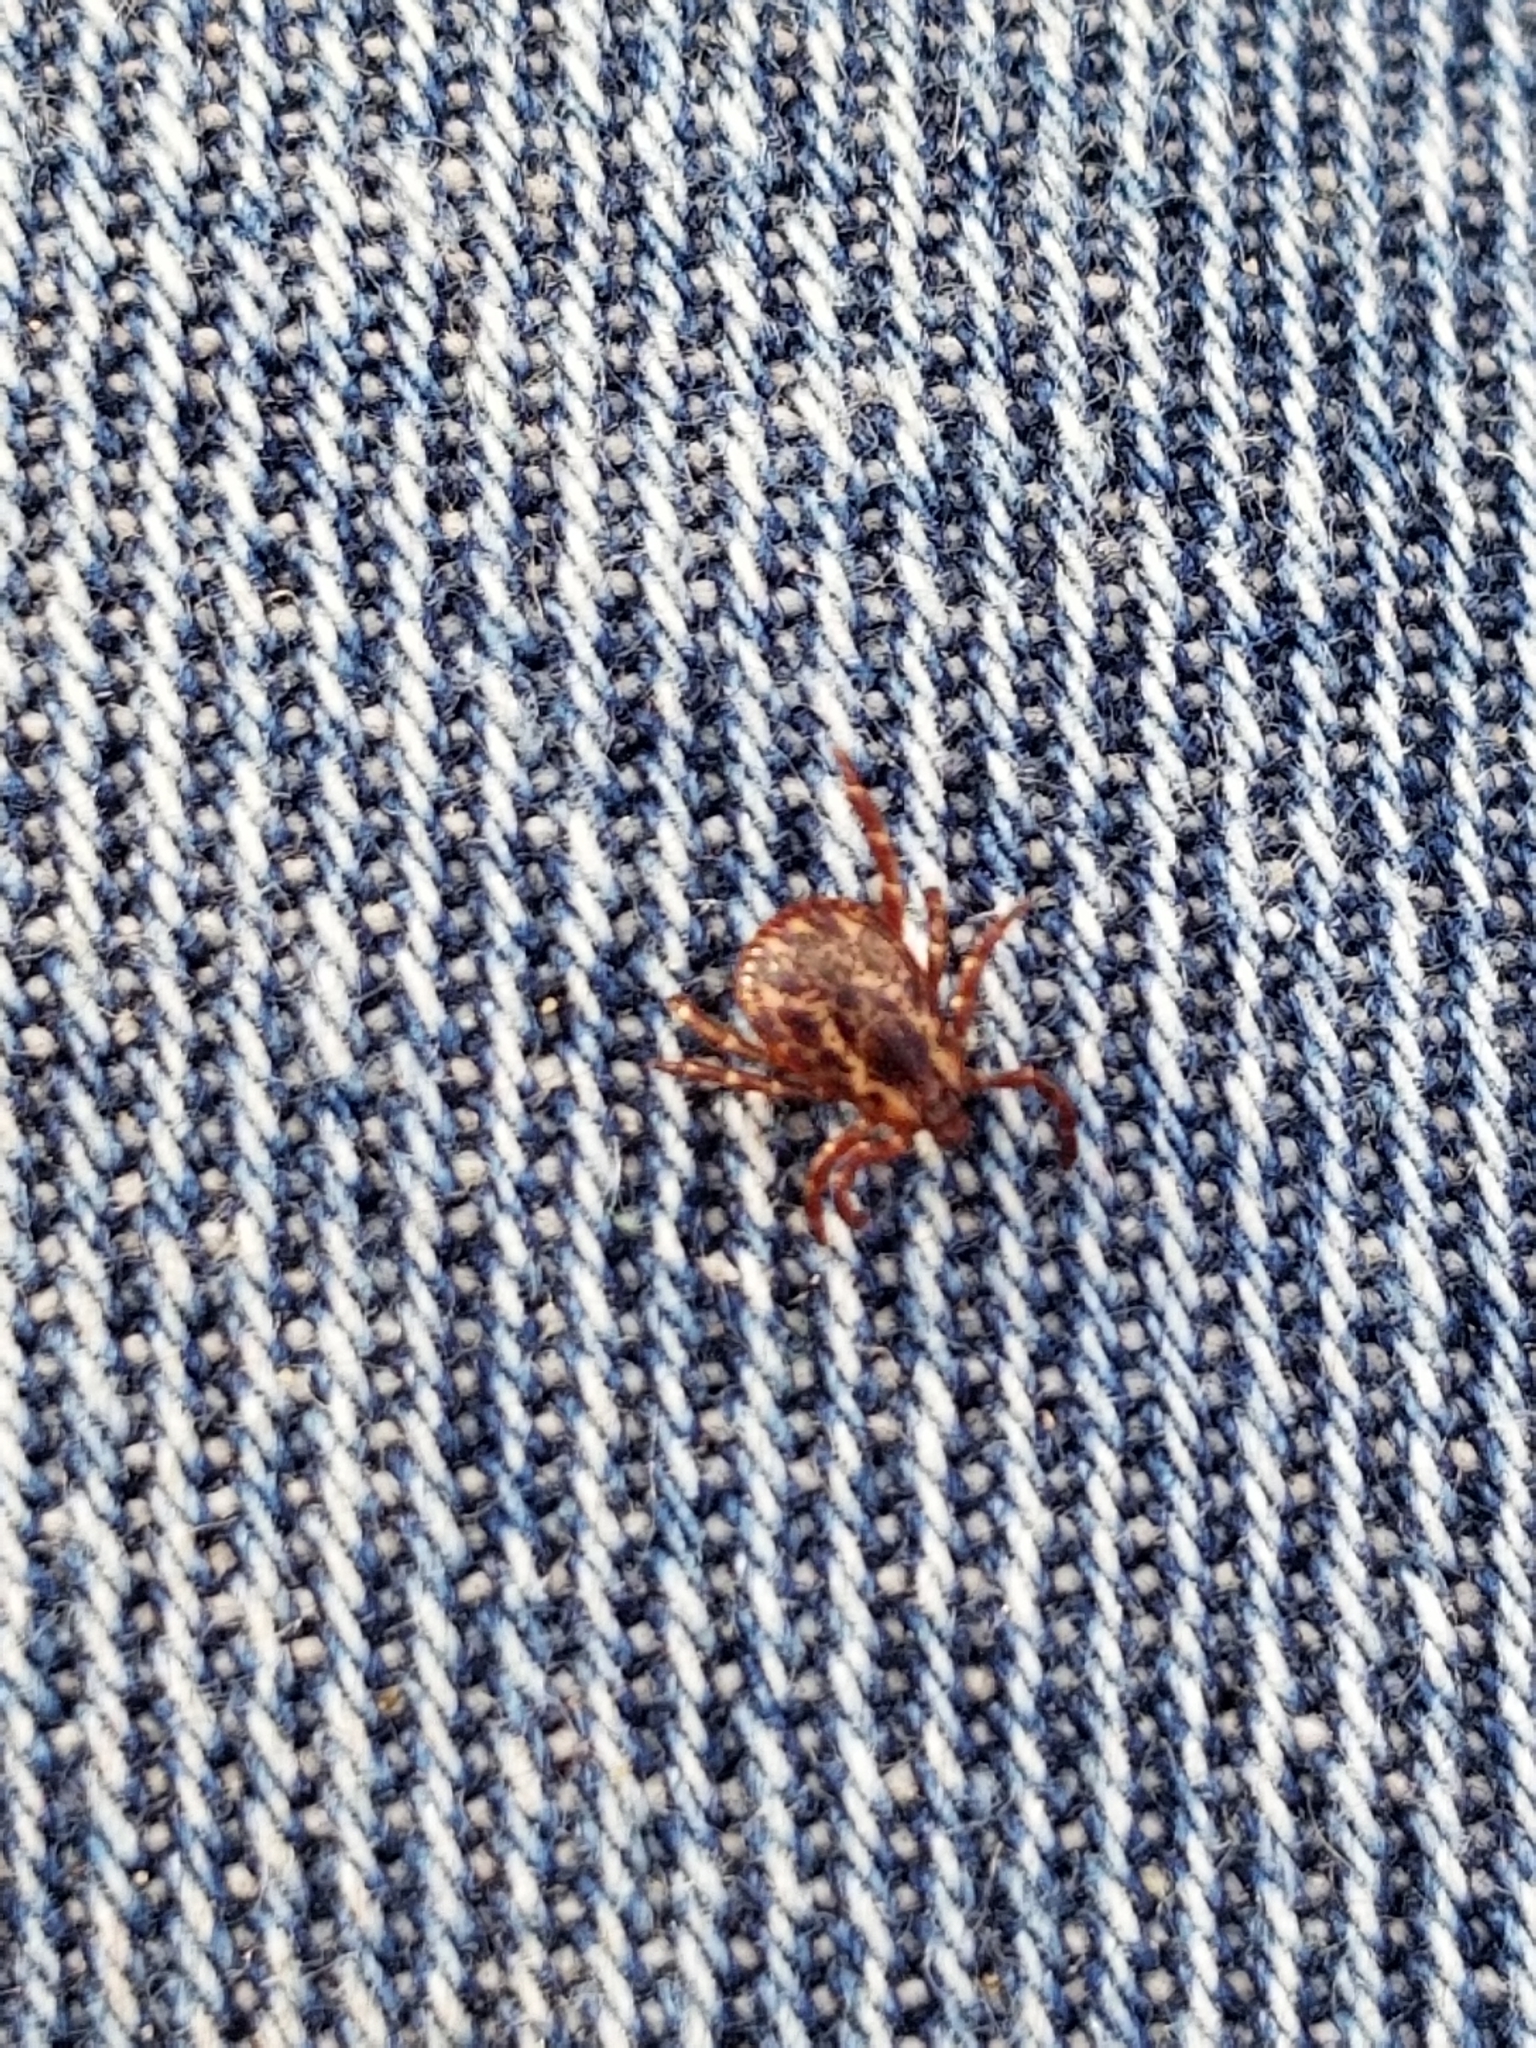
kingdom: Animalia
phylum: Arthropoda
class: Arachnida
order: Ixodida
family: Ixodidae
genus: Dermacentor
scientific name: Dermacentor variabilis
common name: American dog tick
